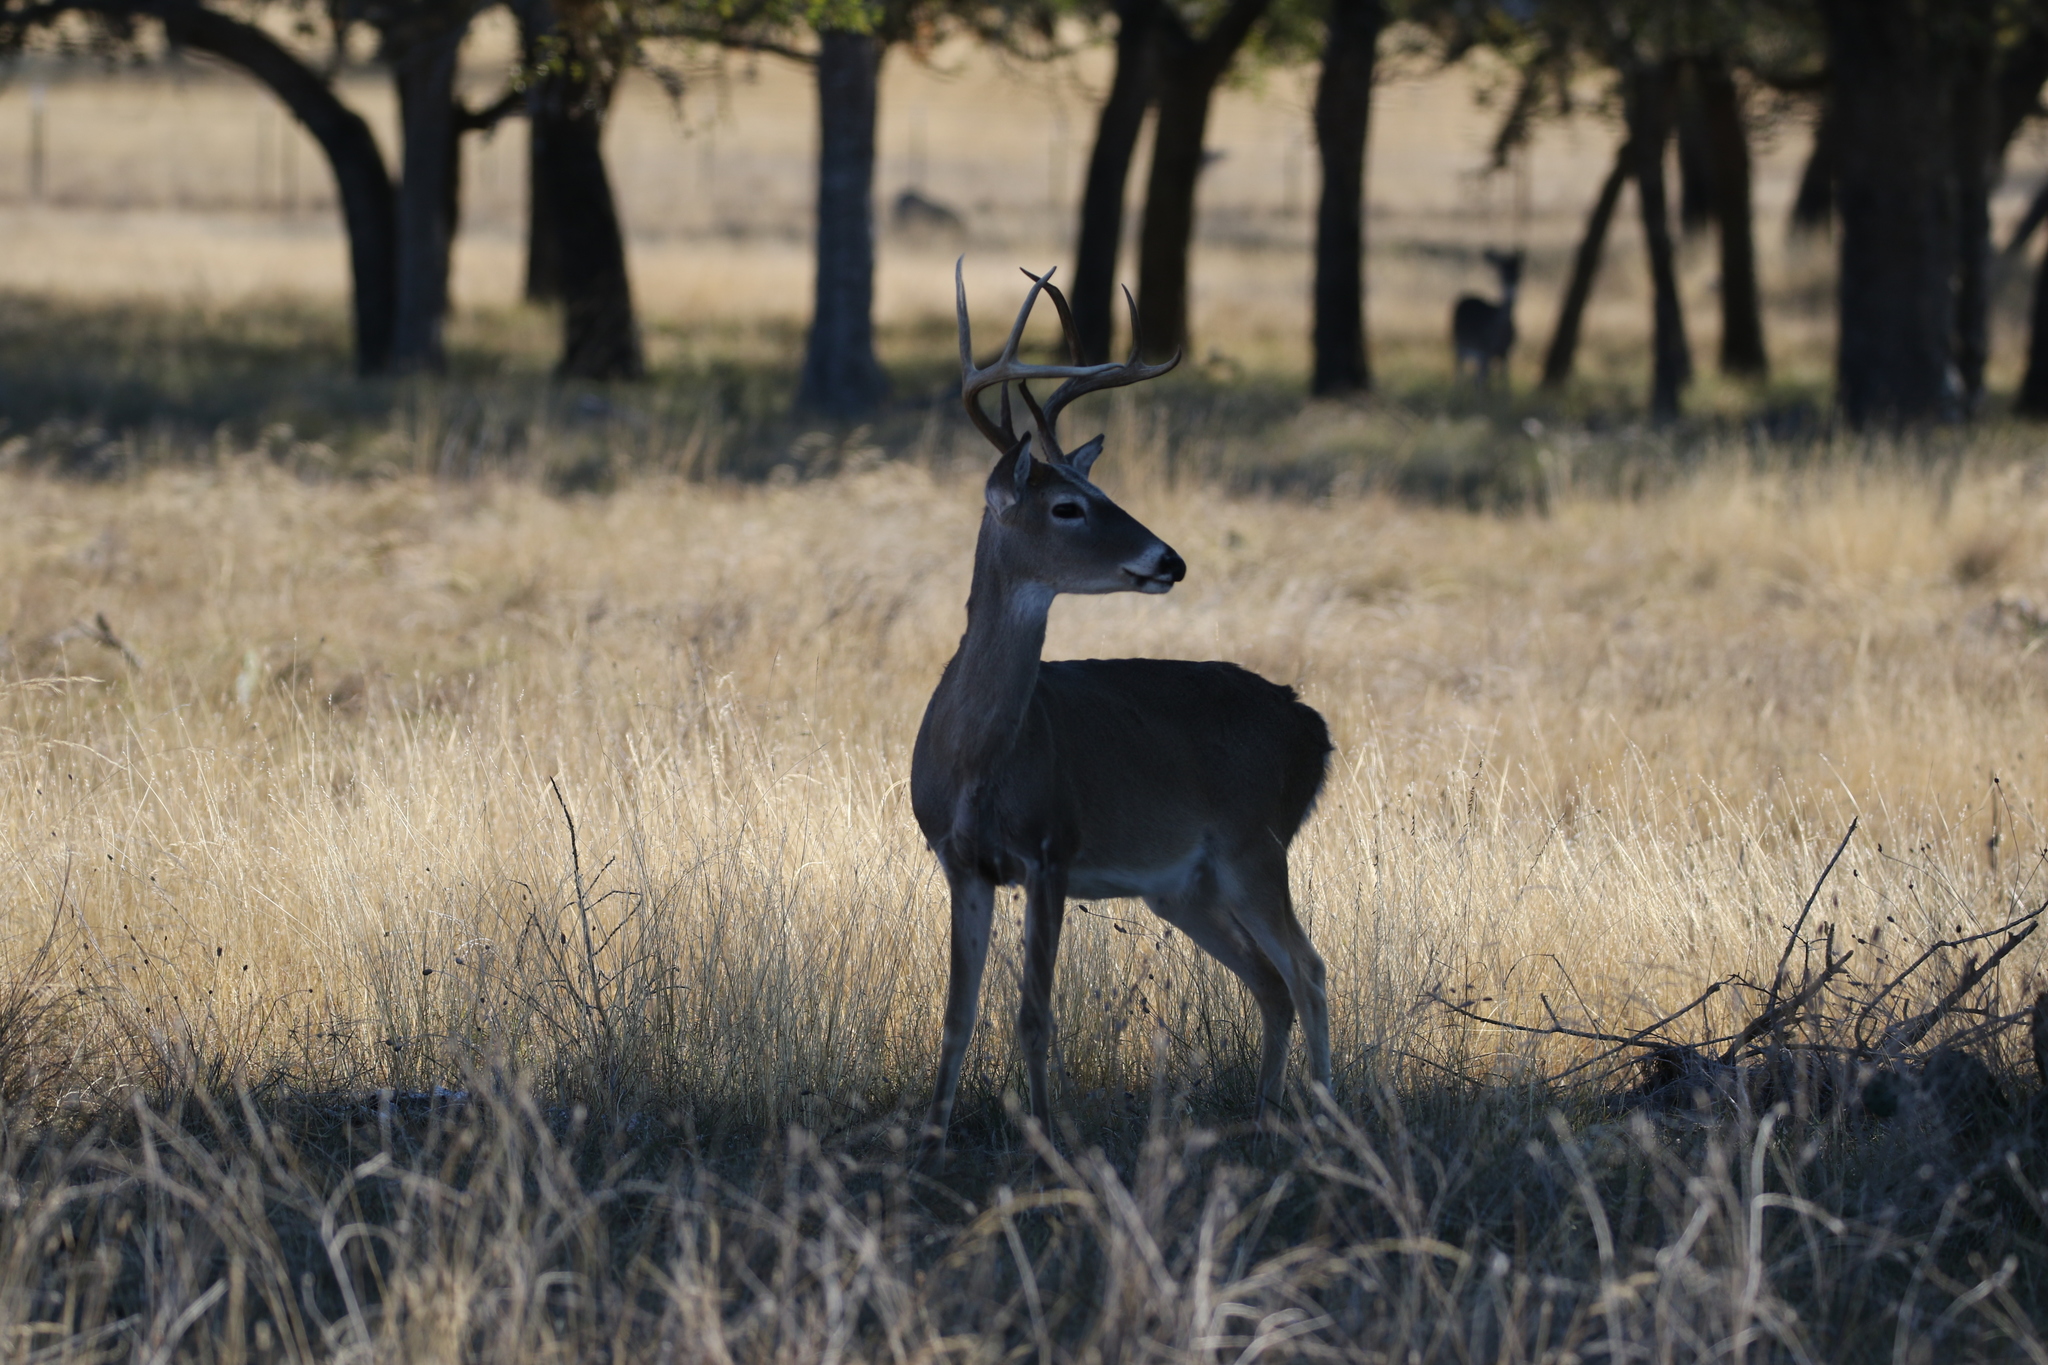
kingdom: Animalia
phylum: Chordata
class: Mammalia
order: Artiodactyla
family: Cervidae
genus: Odocoileus
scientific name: Odocoileus virginianus
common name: White-tailed deer
